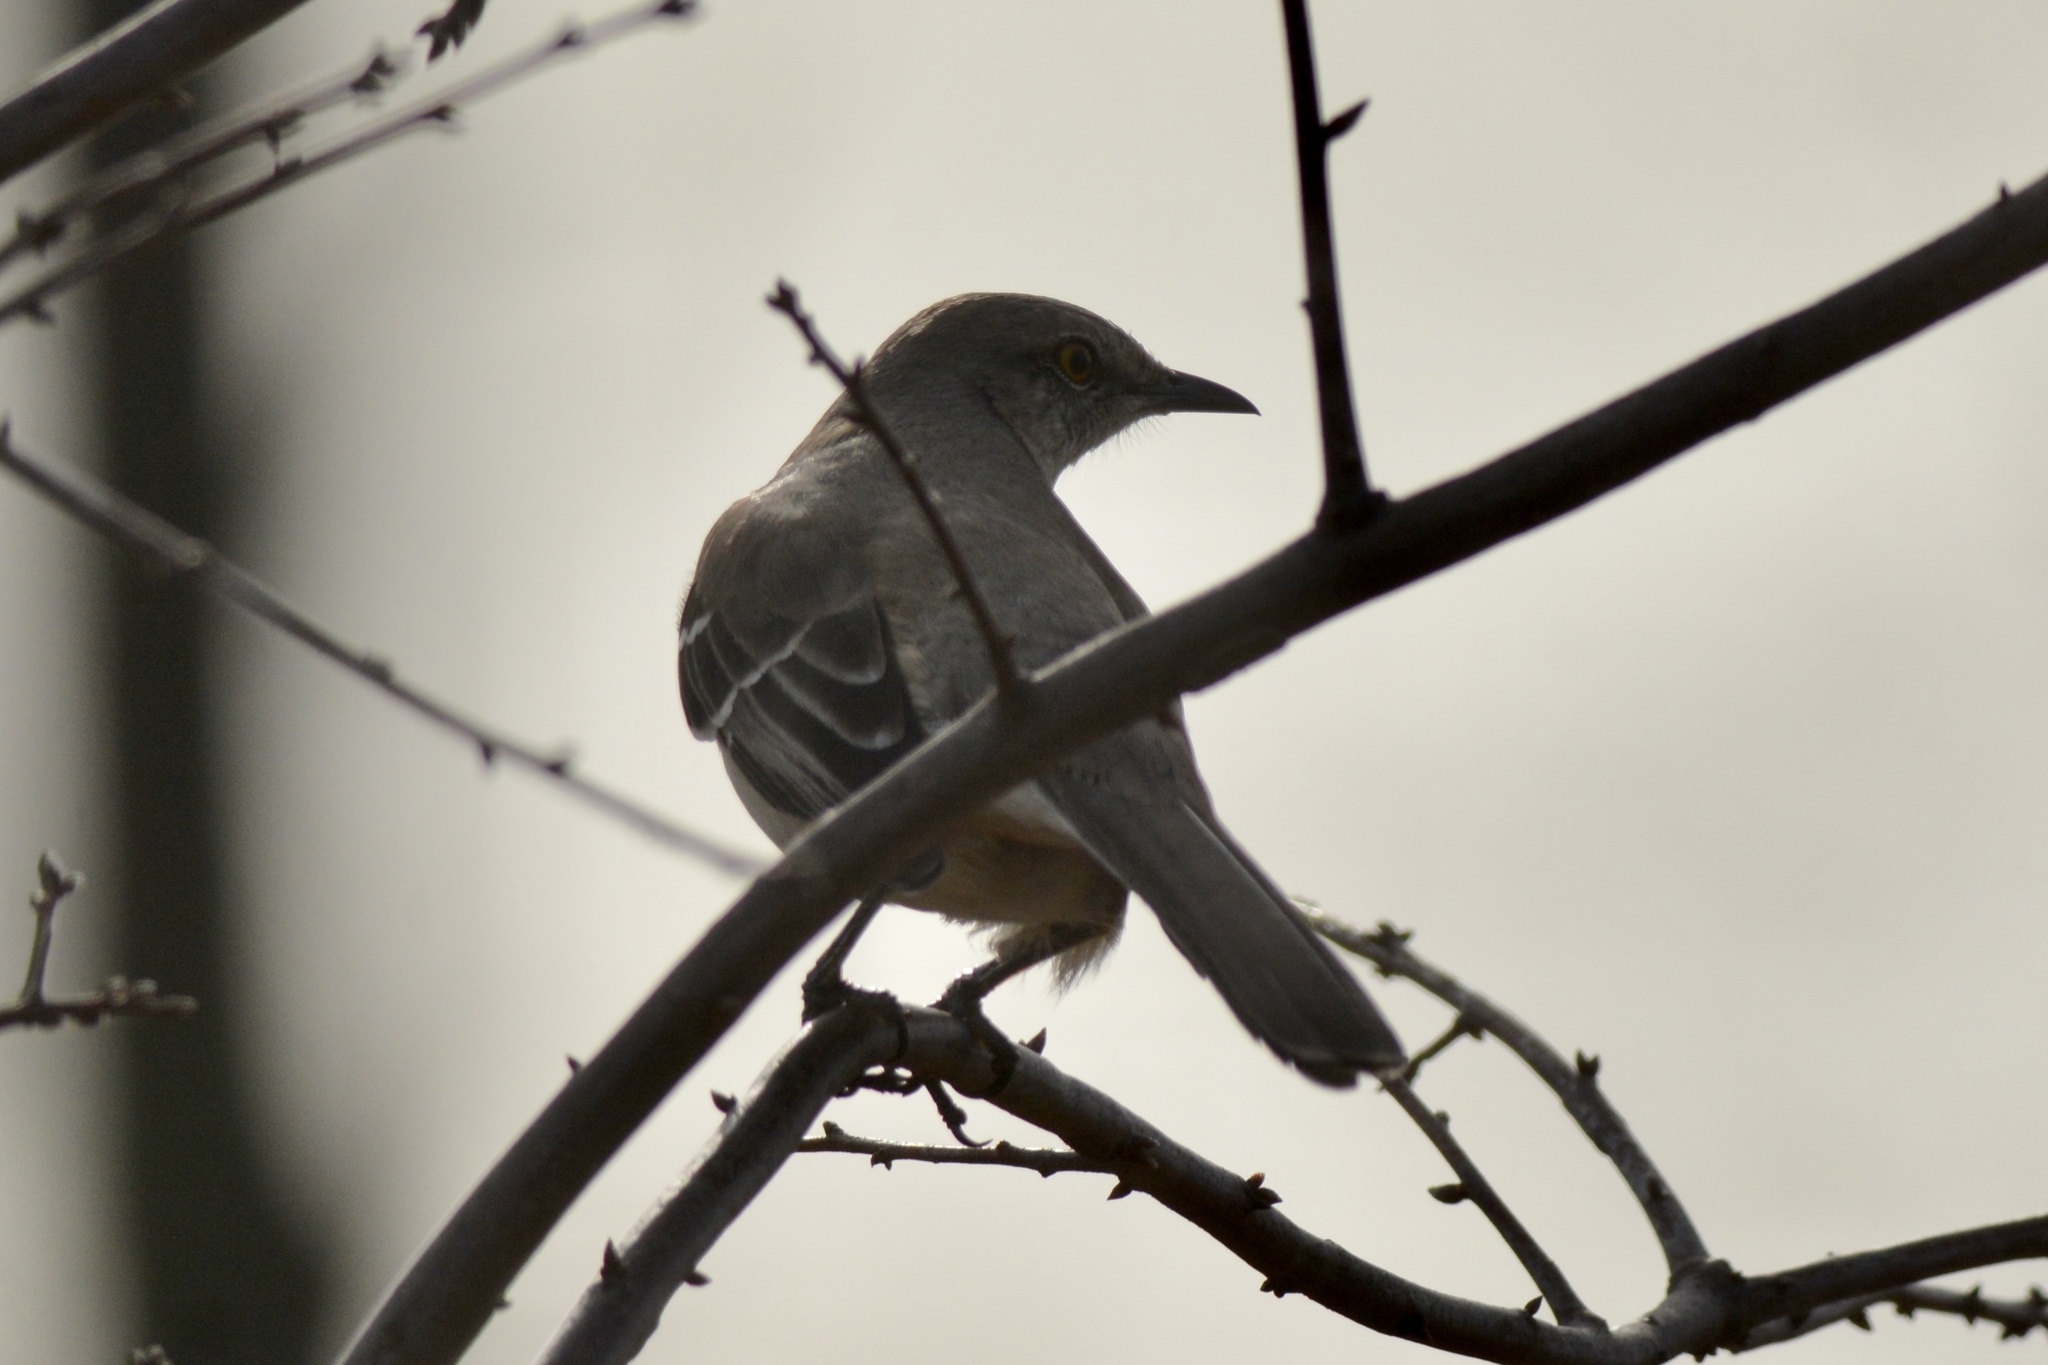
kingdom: Animalia
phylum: Chordata
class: Aves
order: Passeriformes
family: Mimidae
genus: Mimus
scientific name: Mimus polyglottos
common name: Northern mockingbird
